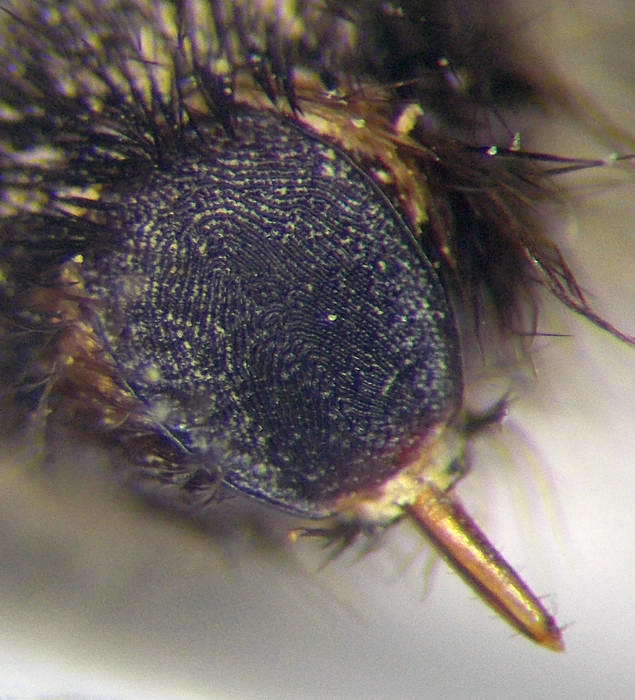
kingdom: Animalia
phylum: Arthropoda
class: Insecta
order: Hymenoptera
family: Mutillidae
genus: Nemka
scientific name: Nemka viduata
